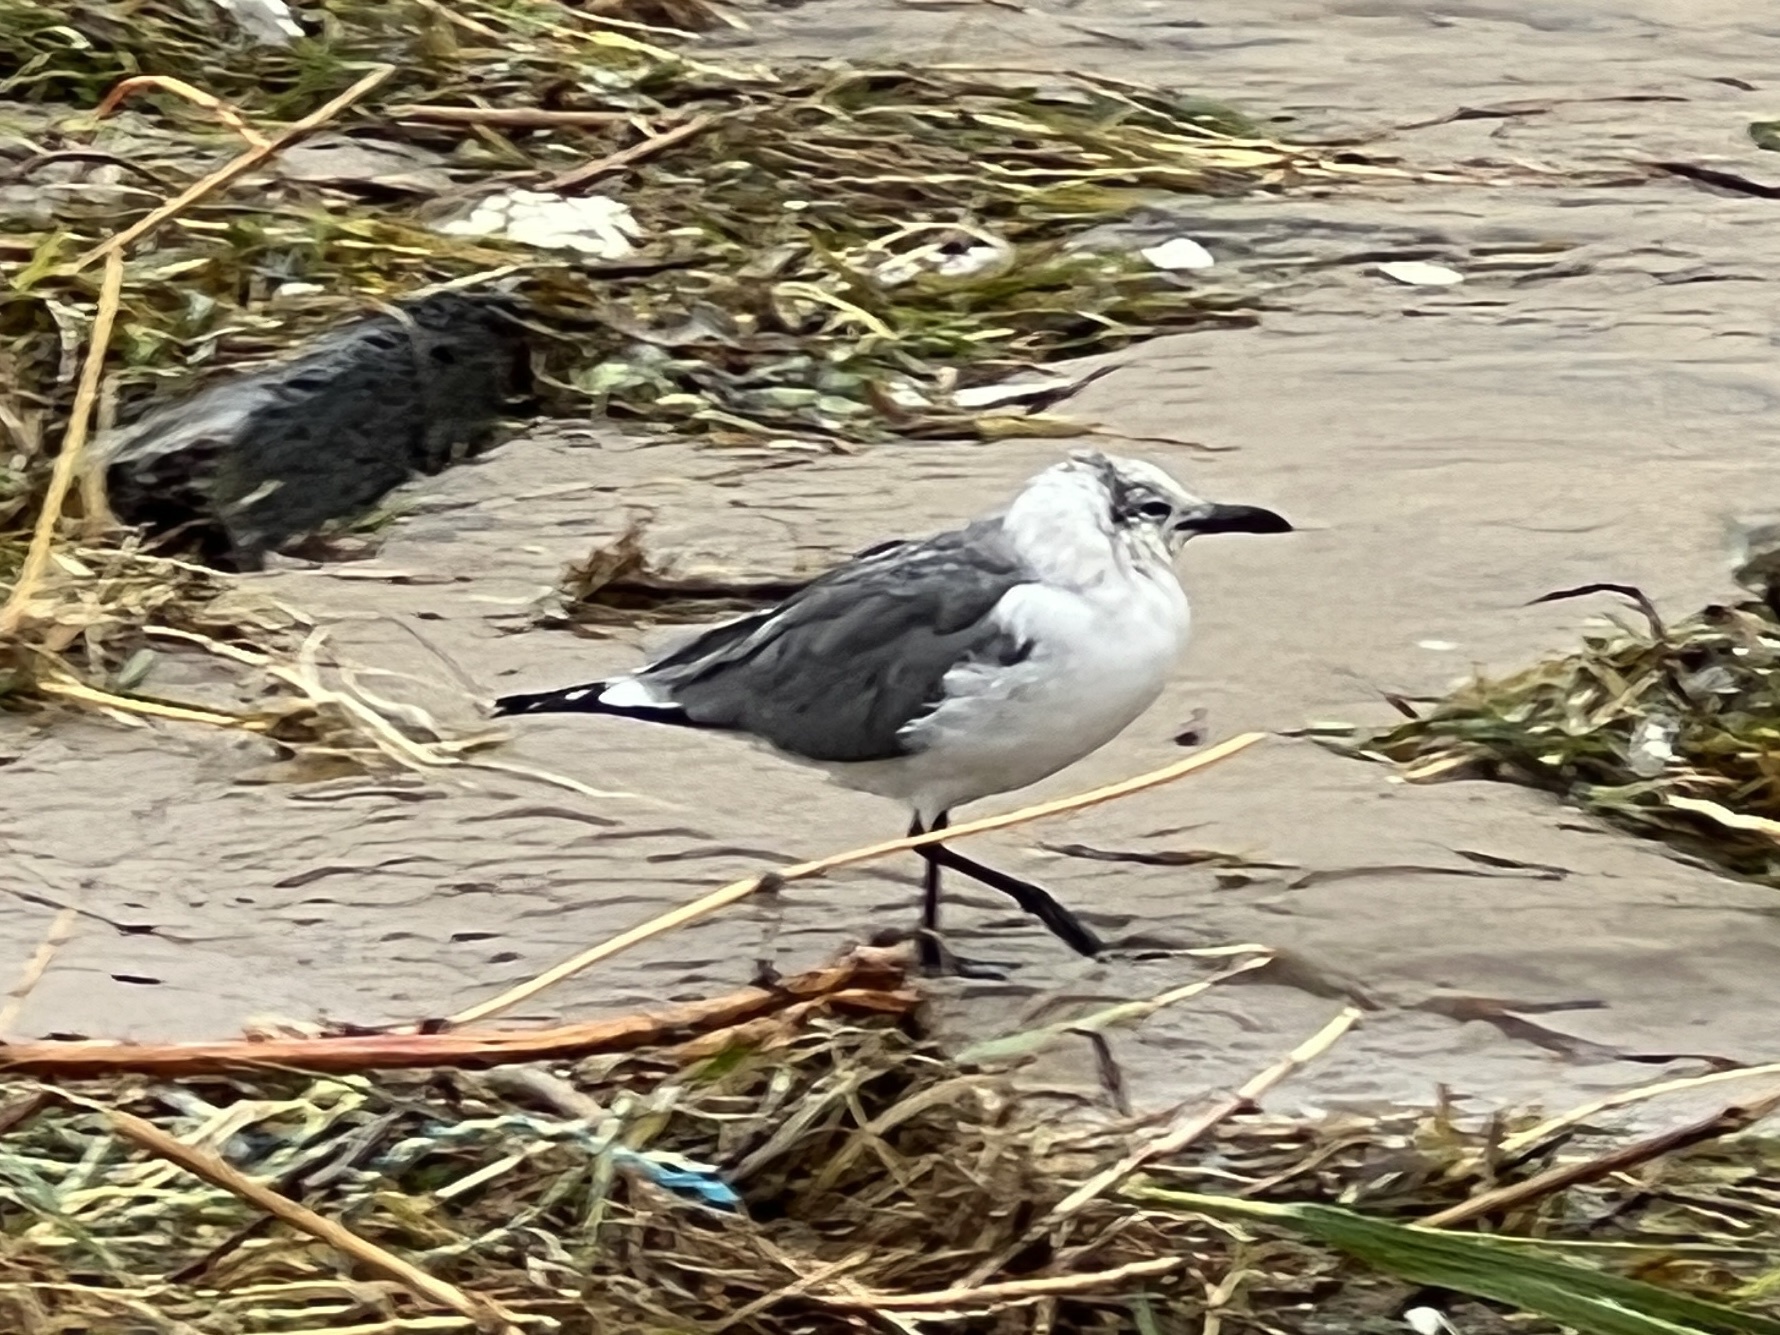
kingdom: Animalia
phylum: Chordata
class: Aves
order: Charadriiformes
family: Laridae
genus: Leucophaeus
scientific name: Leucophaeus atricilla
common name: Laughing gull
